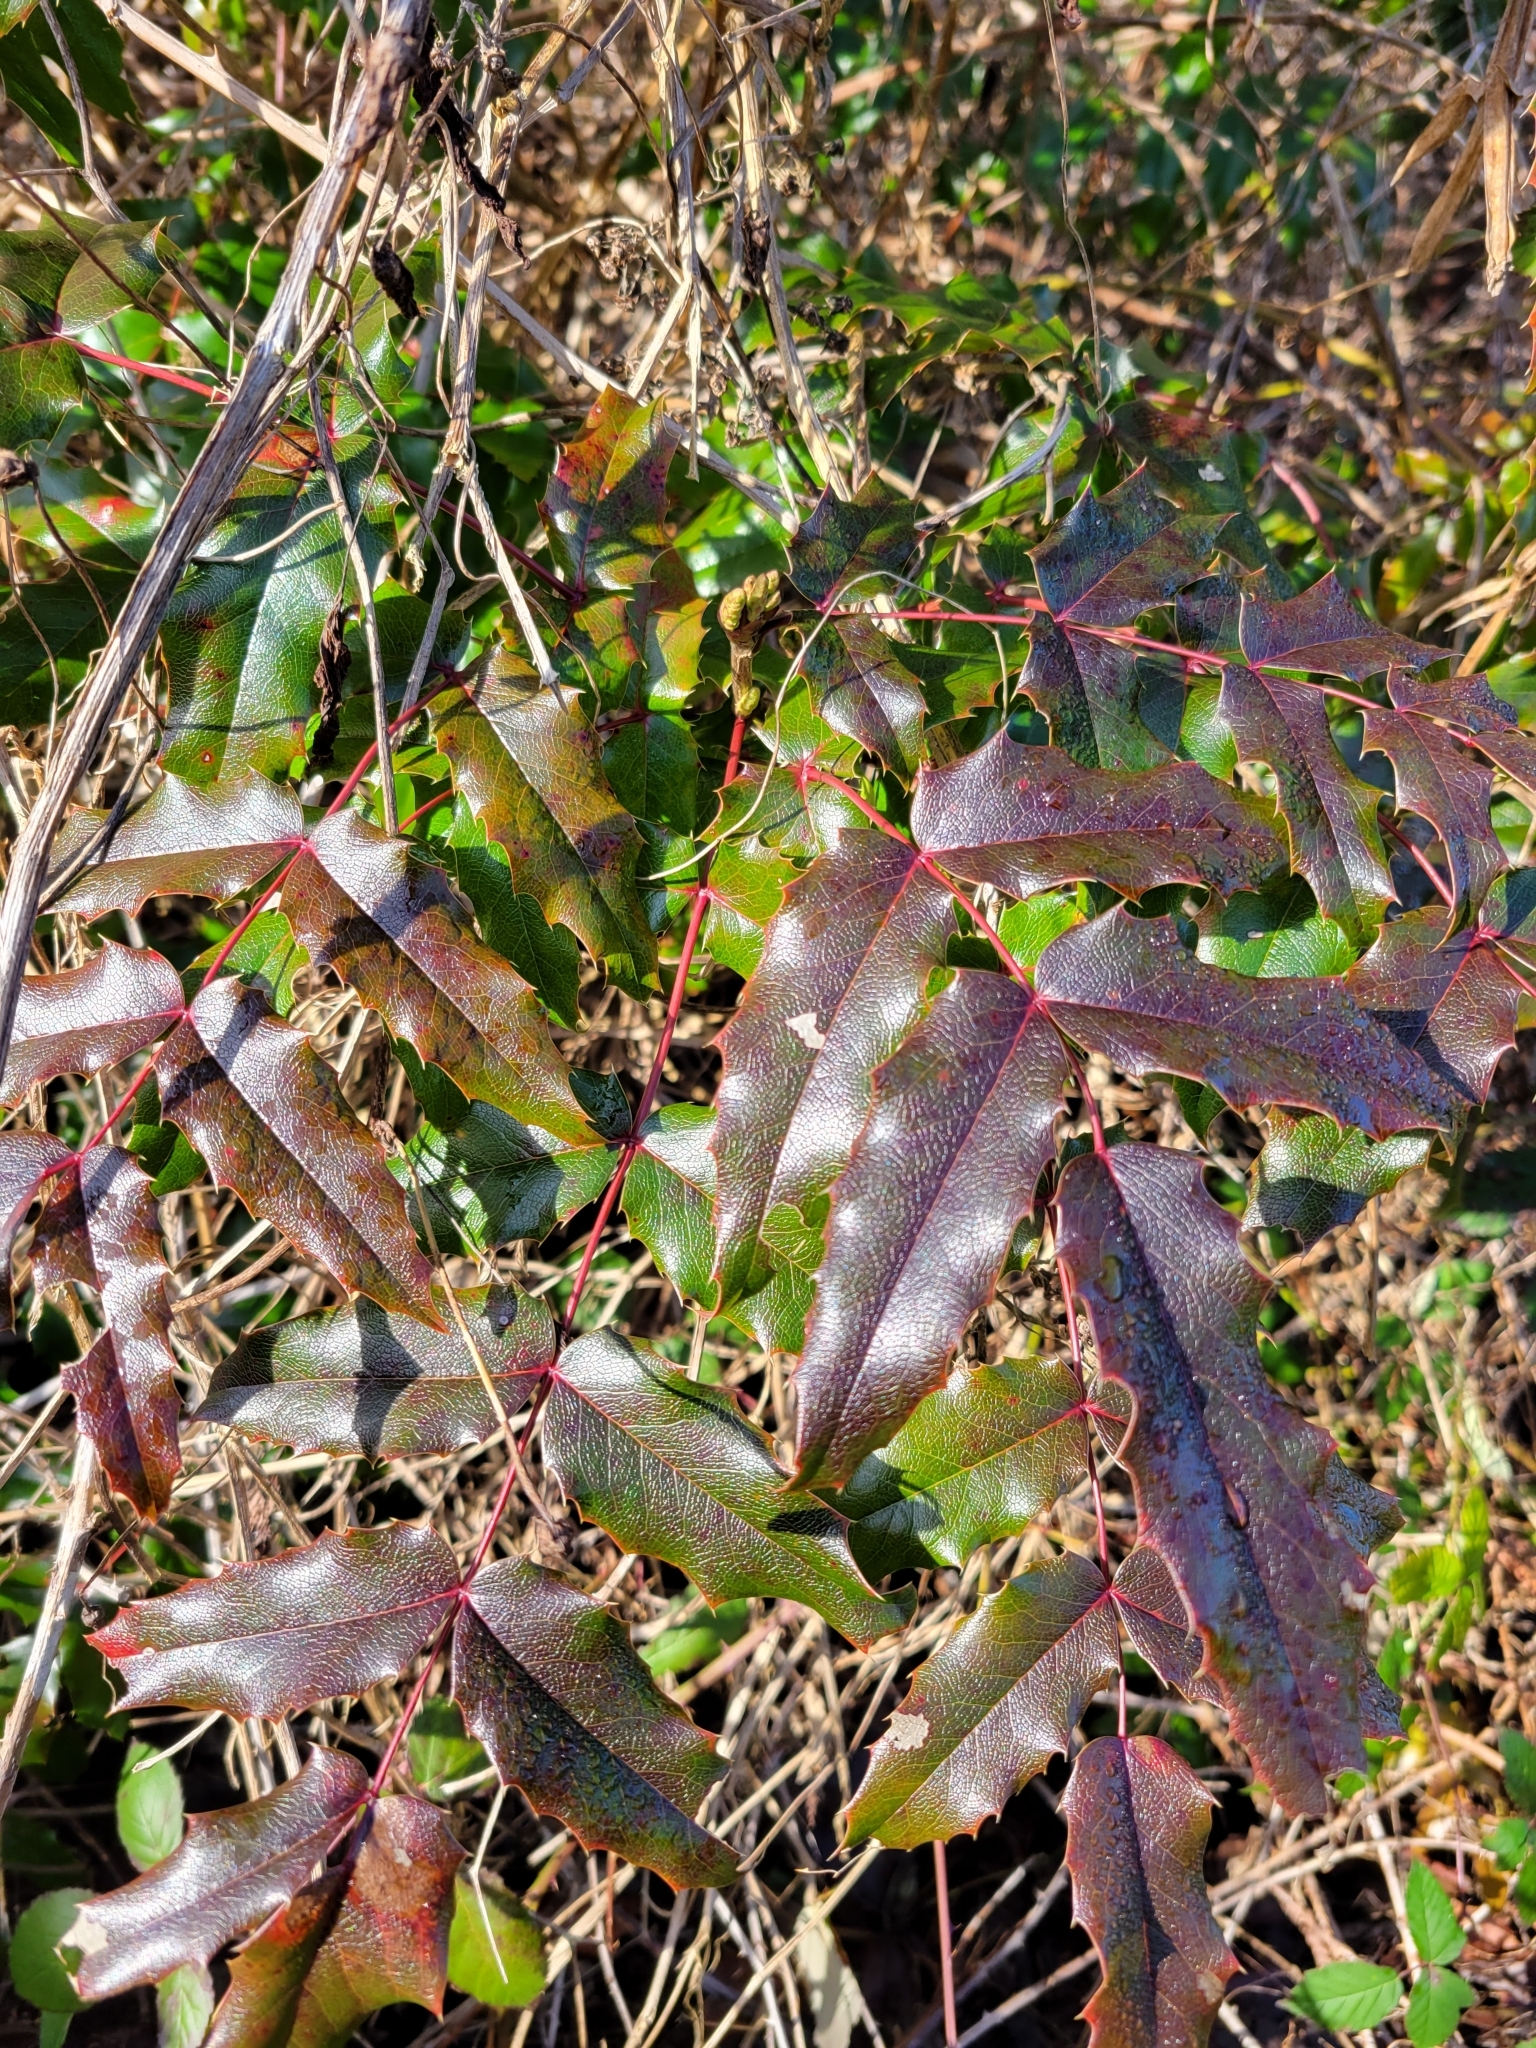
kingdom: Plantae
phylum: Tracheophyta
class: Magnoliopsida
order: Ranunculales
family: Berberidaceae
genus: Mahonia
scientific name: Mahonia aquifolium
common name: Oregon-grape
